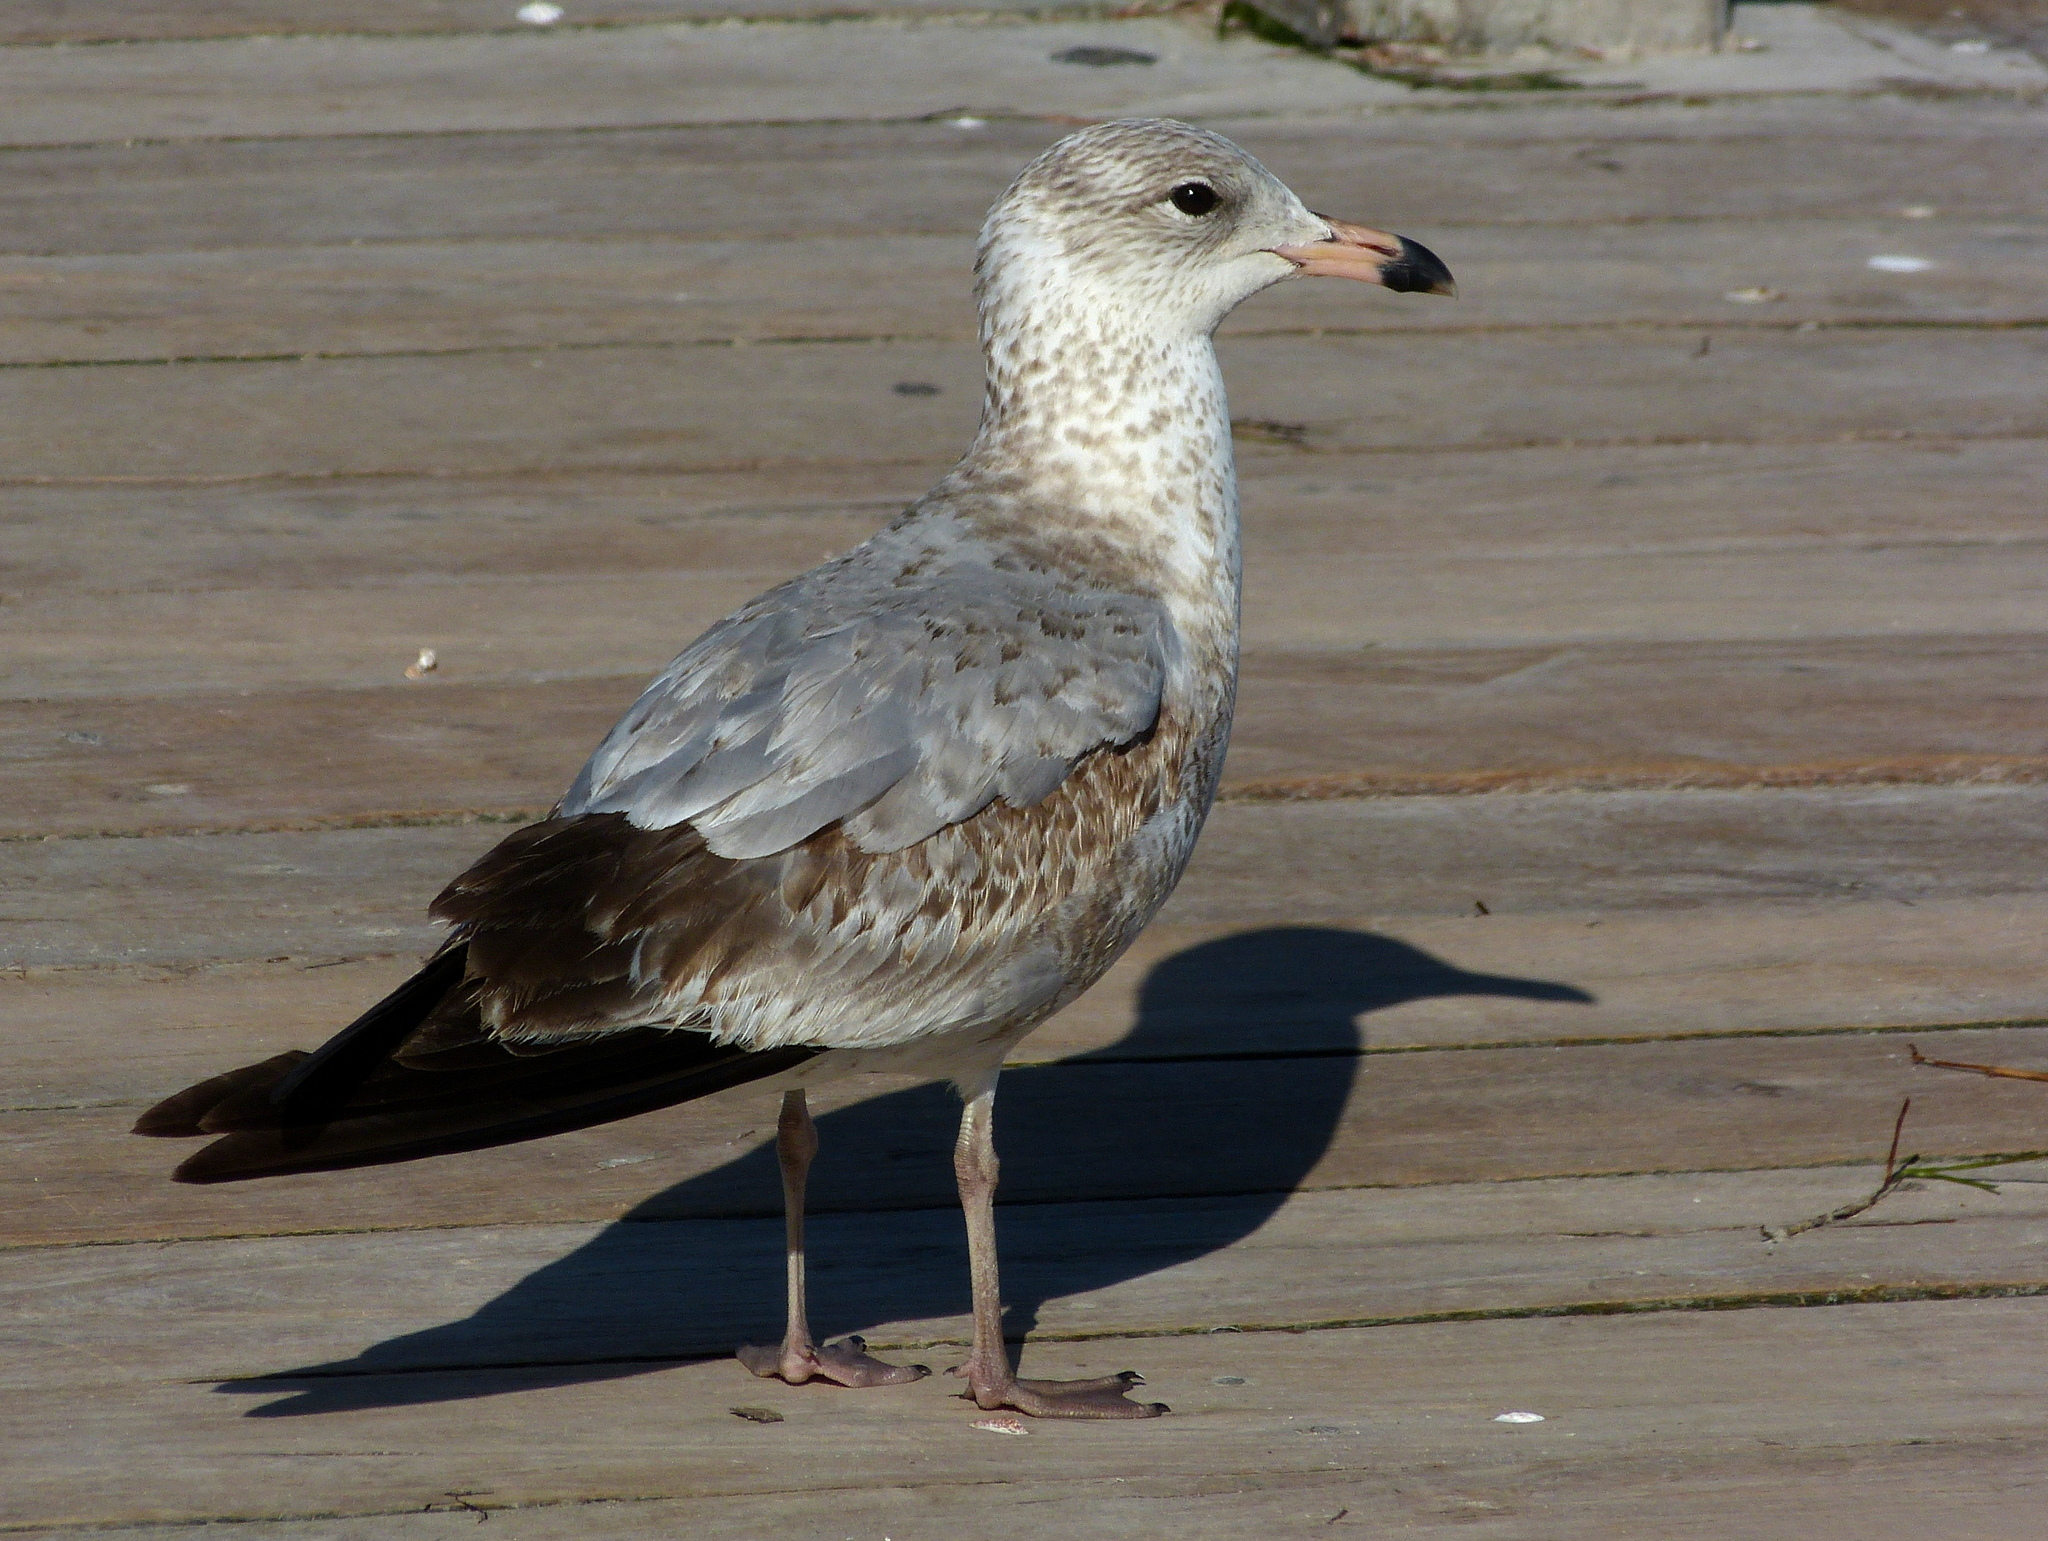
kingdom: Animalia
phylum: Chordata
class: Aves
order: Charadriiformes
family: Laridae
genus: Larus
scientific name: Larus delawarensis
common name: Ring-billed gull
